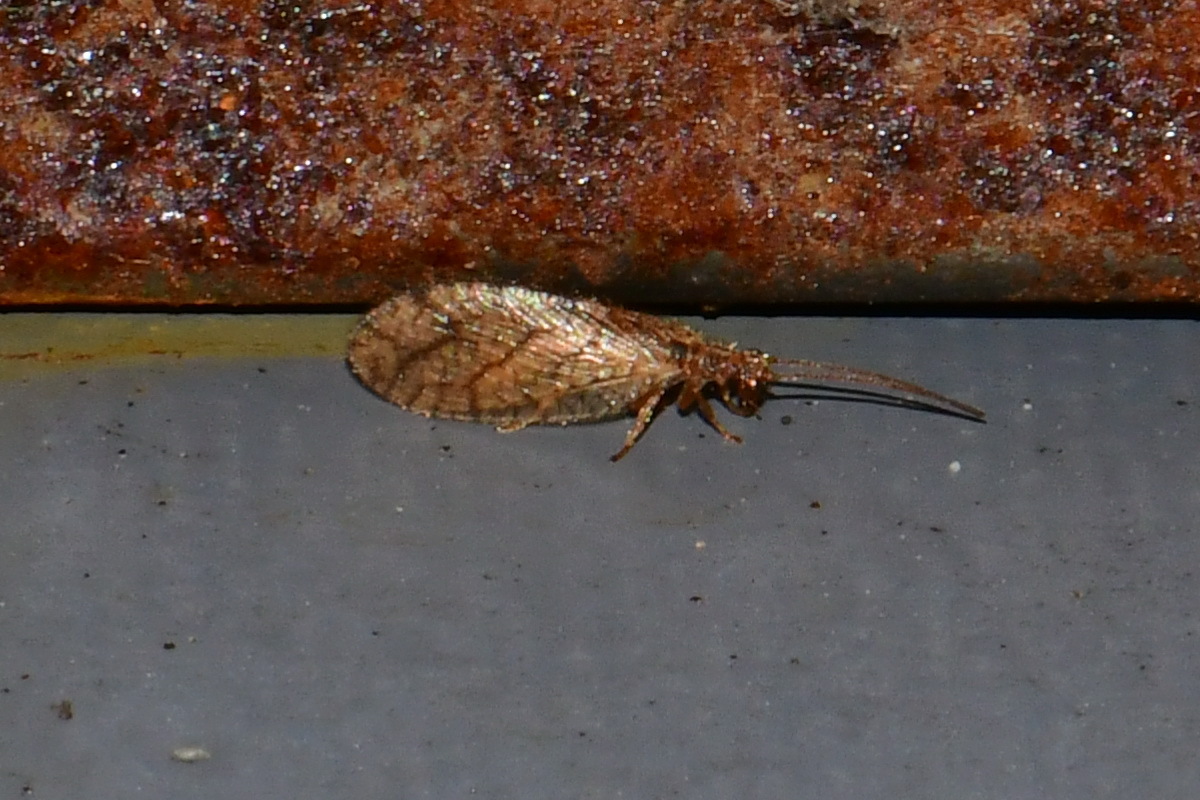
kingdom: Animalia
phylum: Arthropoda
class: Insecta
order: Neuroptera
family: Hemerobiidae
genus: Micromus
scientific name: Micromus angulatus
